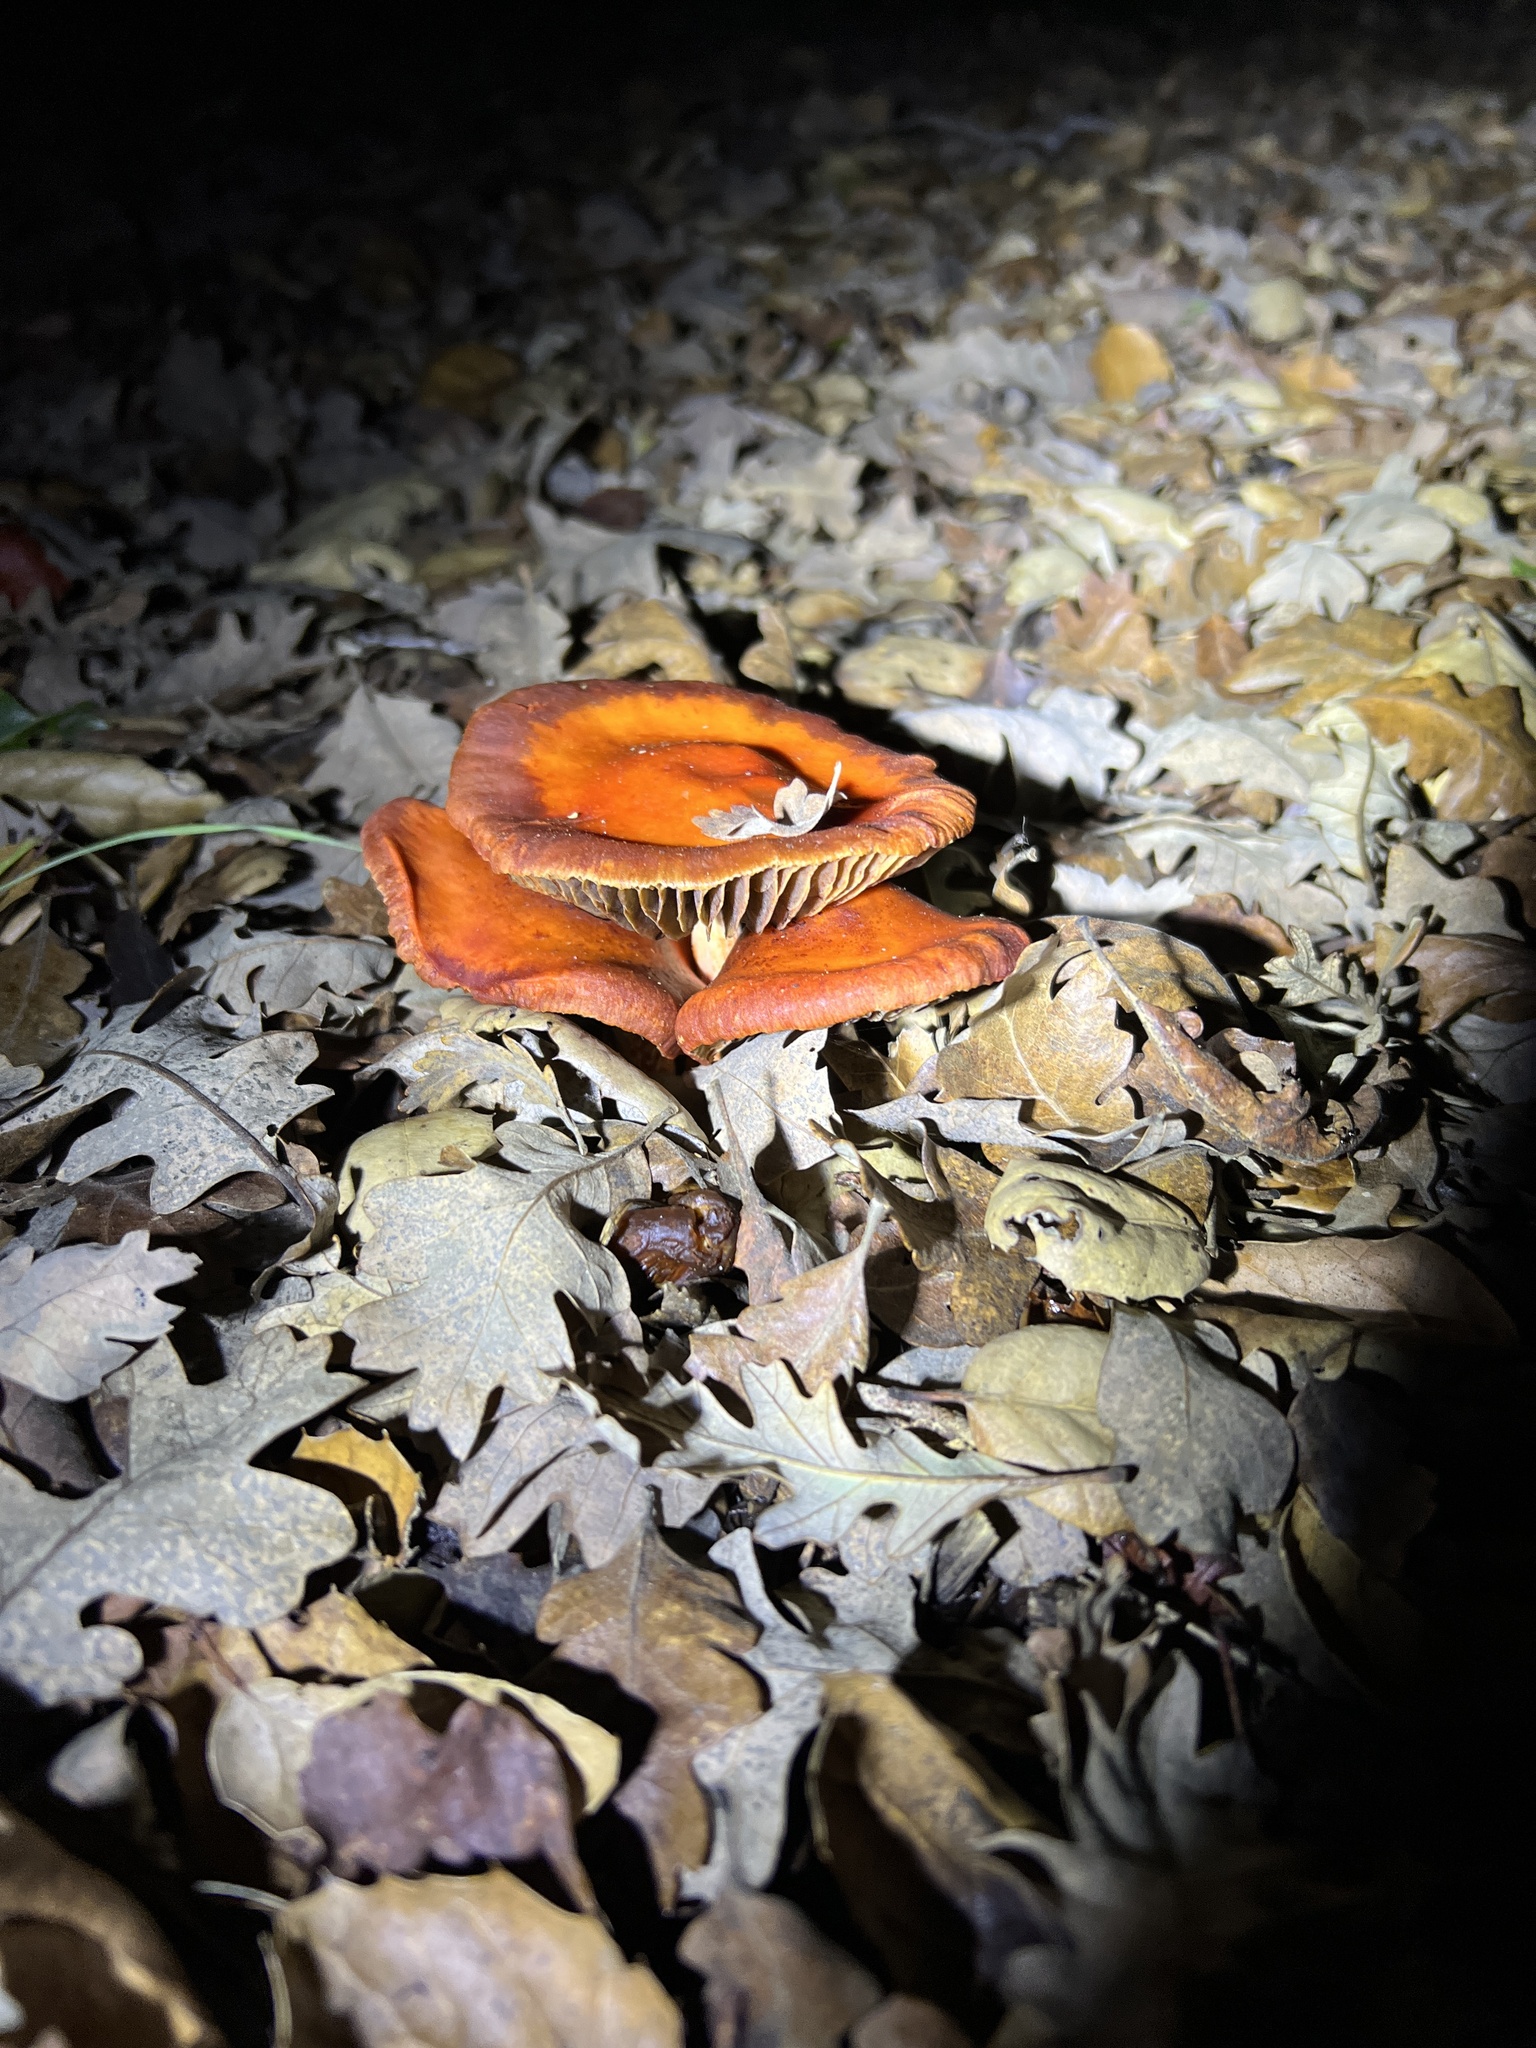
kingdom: Fungi
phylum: Basidiomycota
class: Agaricomycetes
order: Agaricales
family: Strophariaceae
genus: Leratiomyces
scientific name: Leratiomyces ceres
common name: Redlead roundhead
